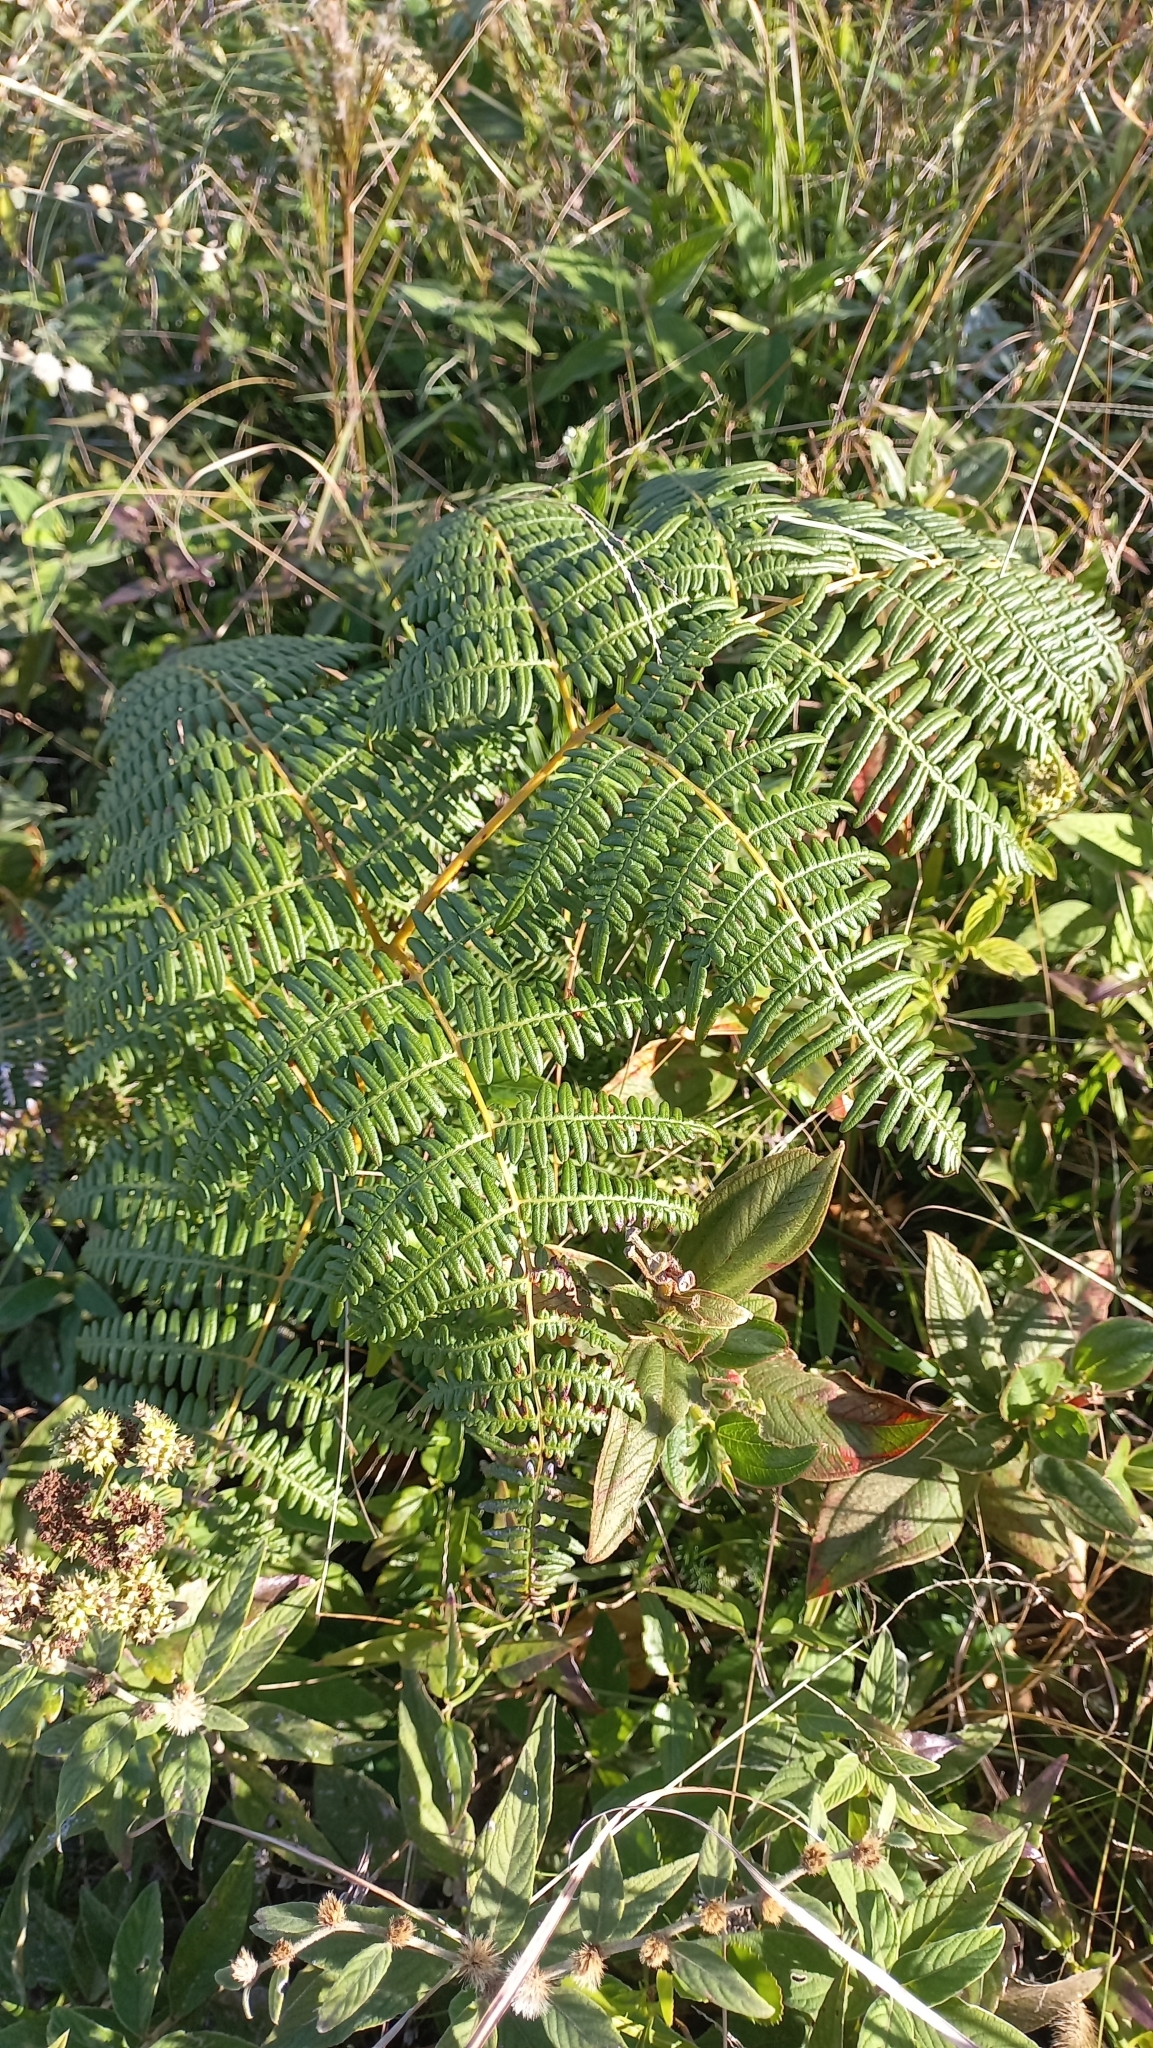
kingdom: Plantae
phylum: Tracheophyta
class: Polypodiopsida
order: Polypodiales
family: Dennstaedtiaceae
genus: Pteridium
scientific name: Pteridium esculentum
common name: Bracken fern
